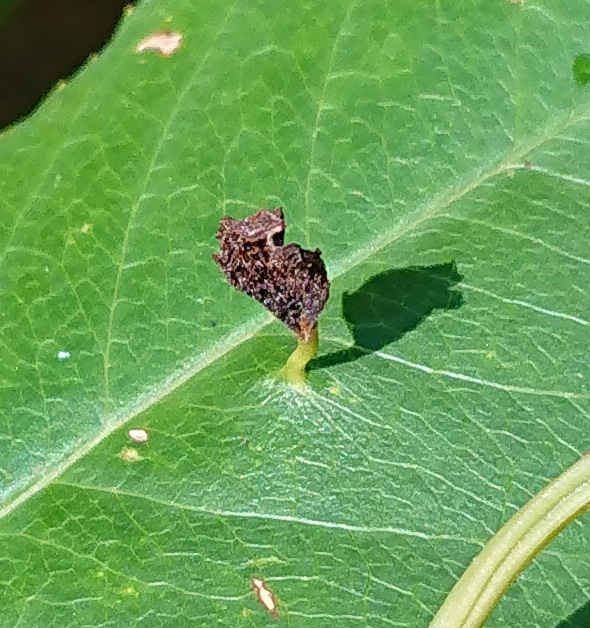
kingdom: Animalia
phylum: Arthropoda
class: Arachnida
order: Trombidiformes
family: Eriophyidae
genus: Eriophyes
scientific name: Eriophyes
